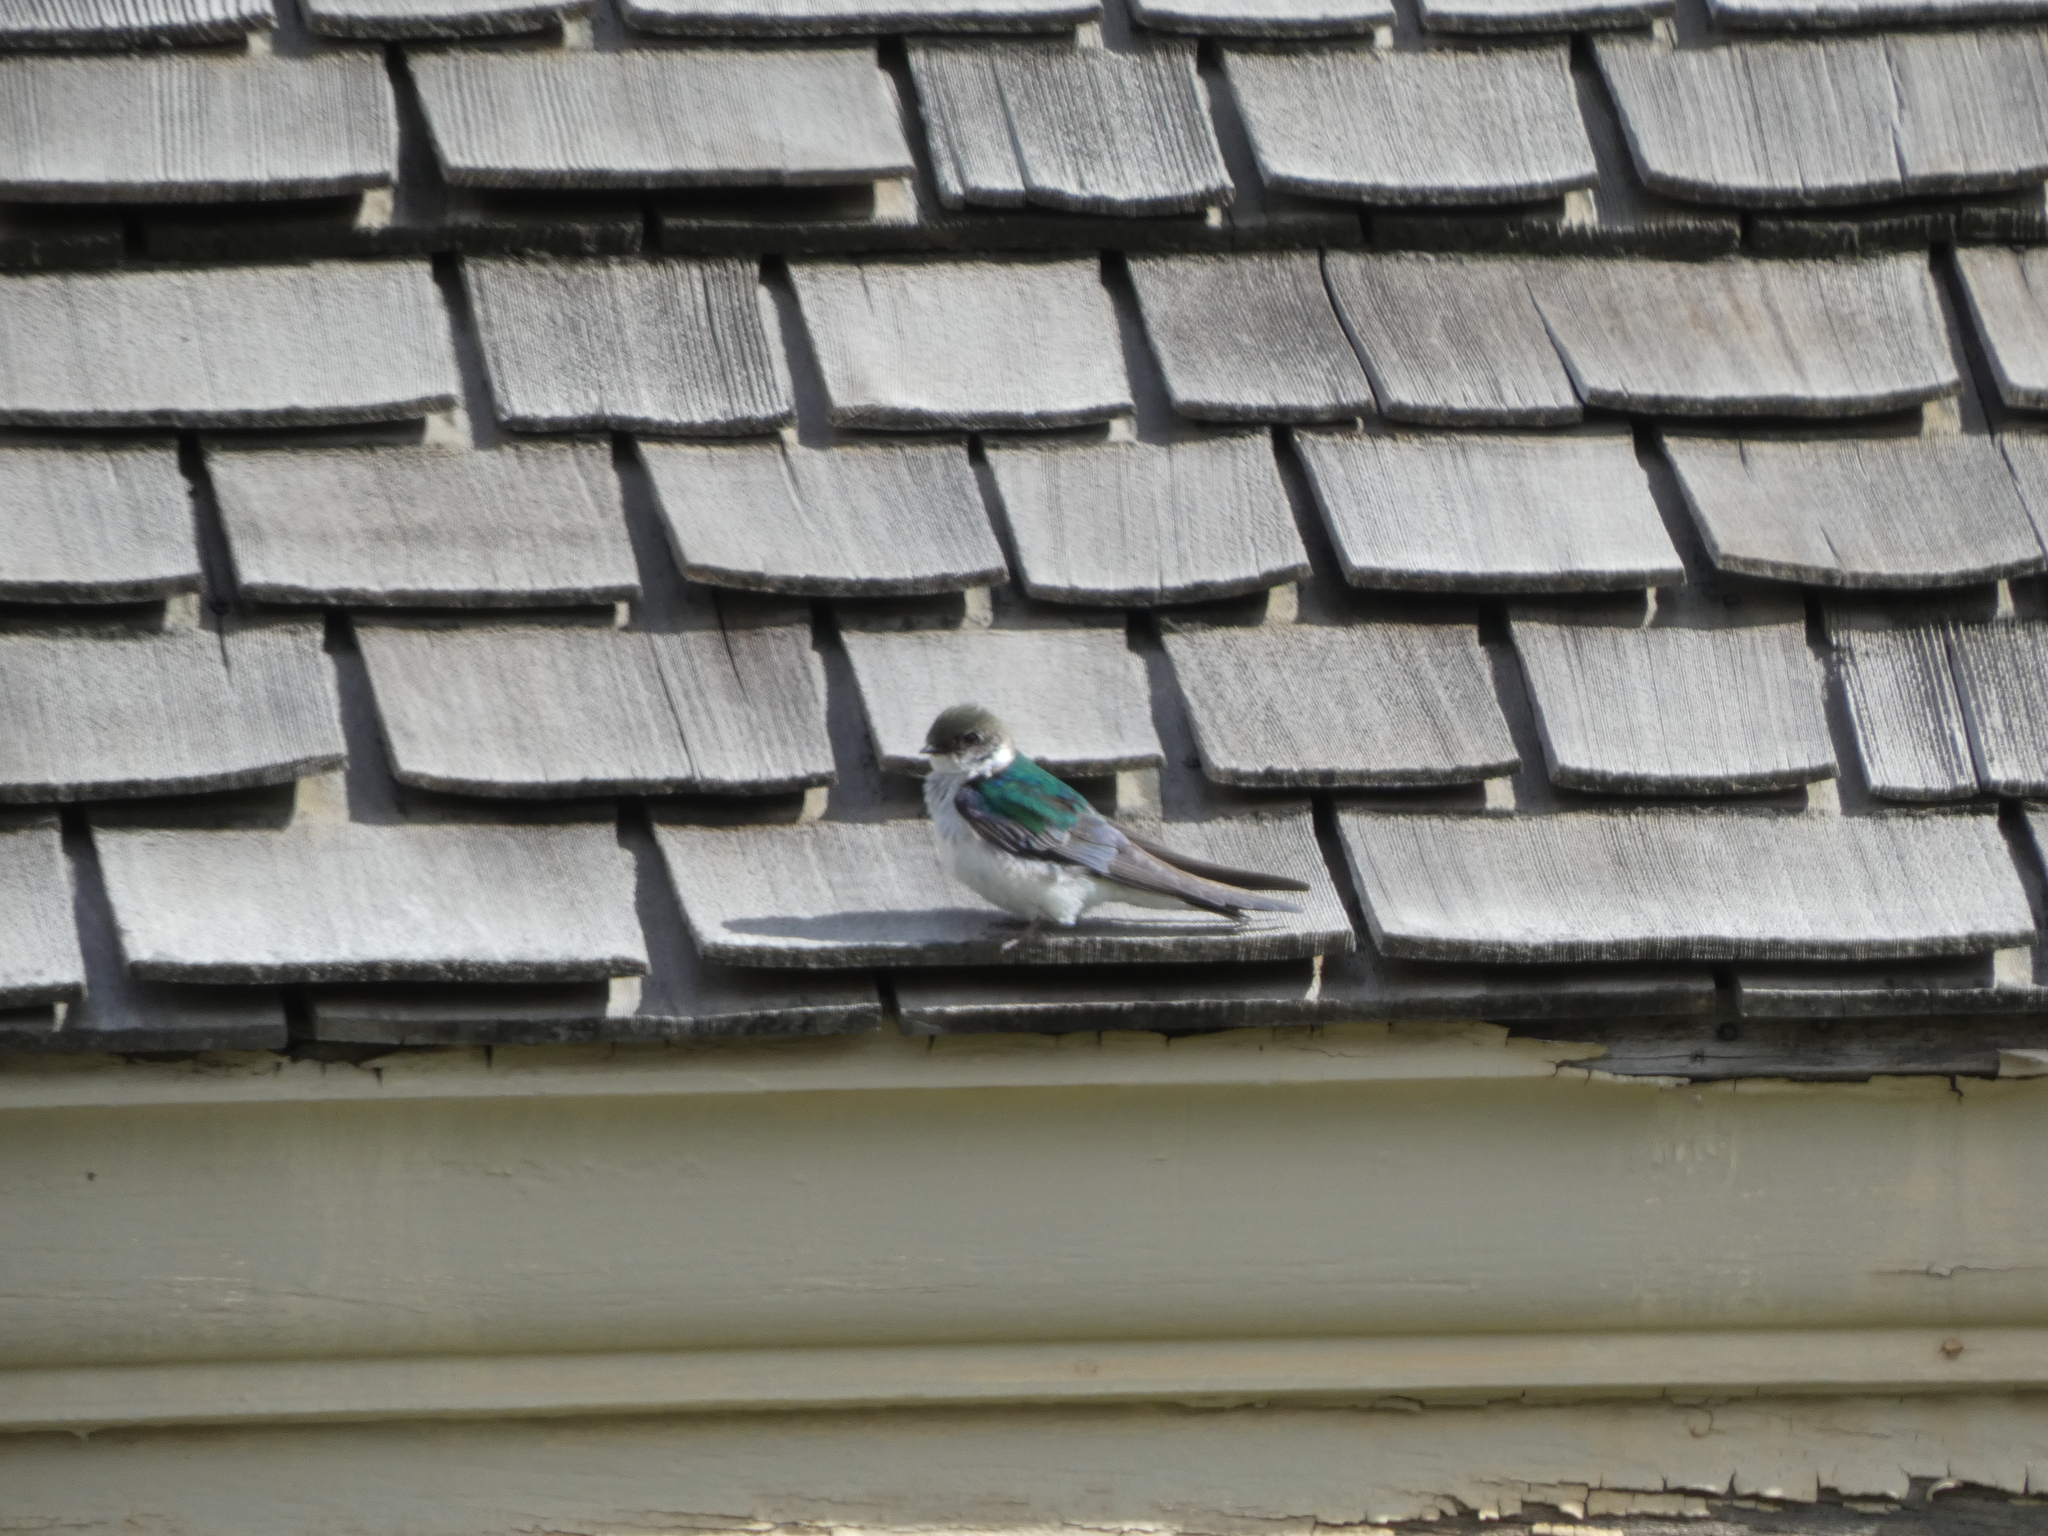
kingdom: Animalia
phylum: Chordata
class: Aves
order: Passeriformes
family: Hirundinidae
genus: Tachycineta
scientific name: Tachycineta thalassina
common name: Violet-green swallow
